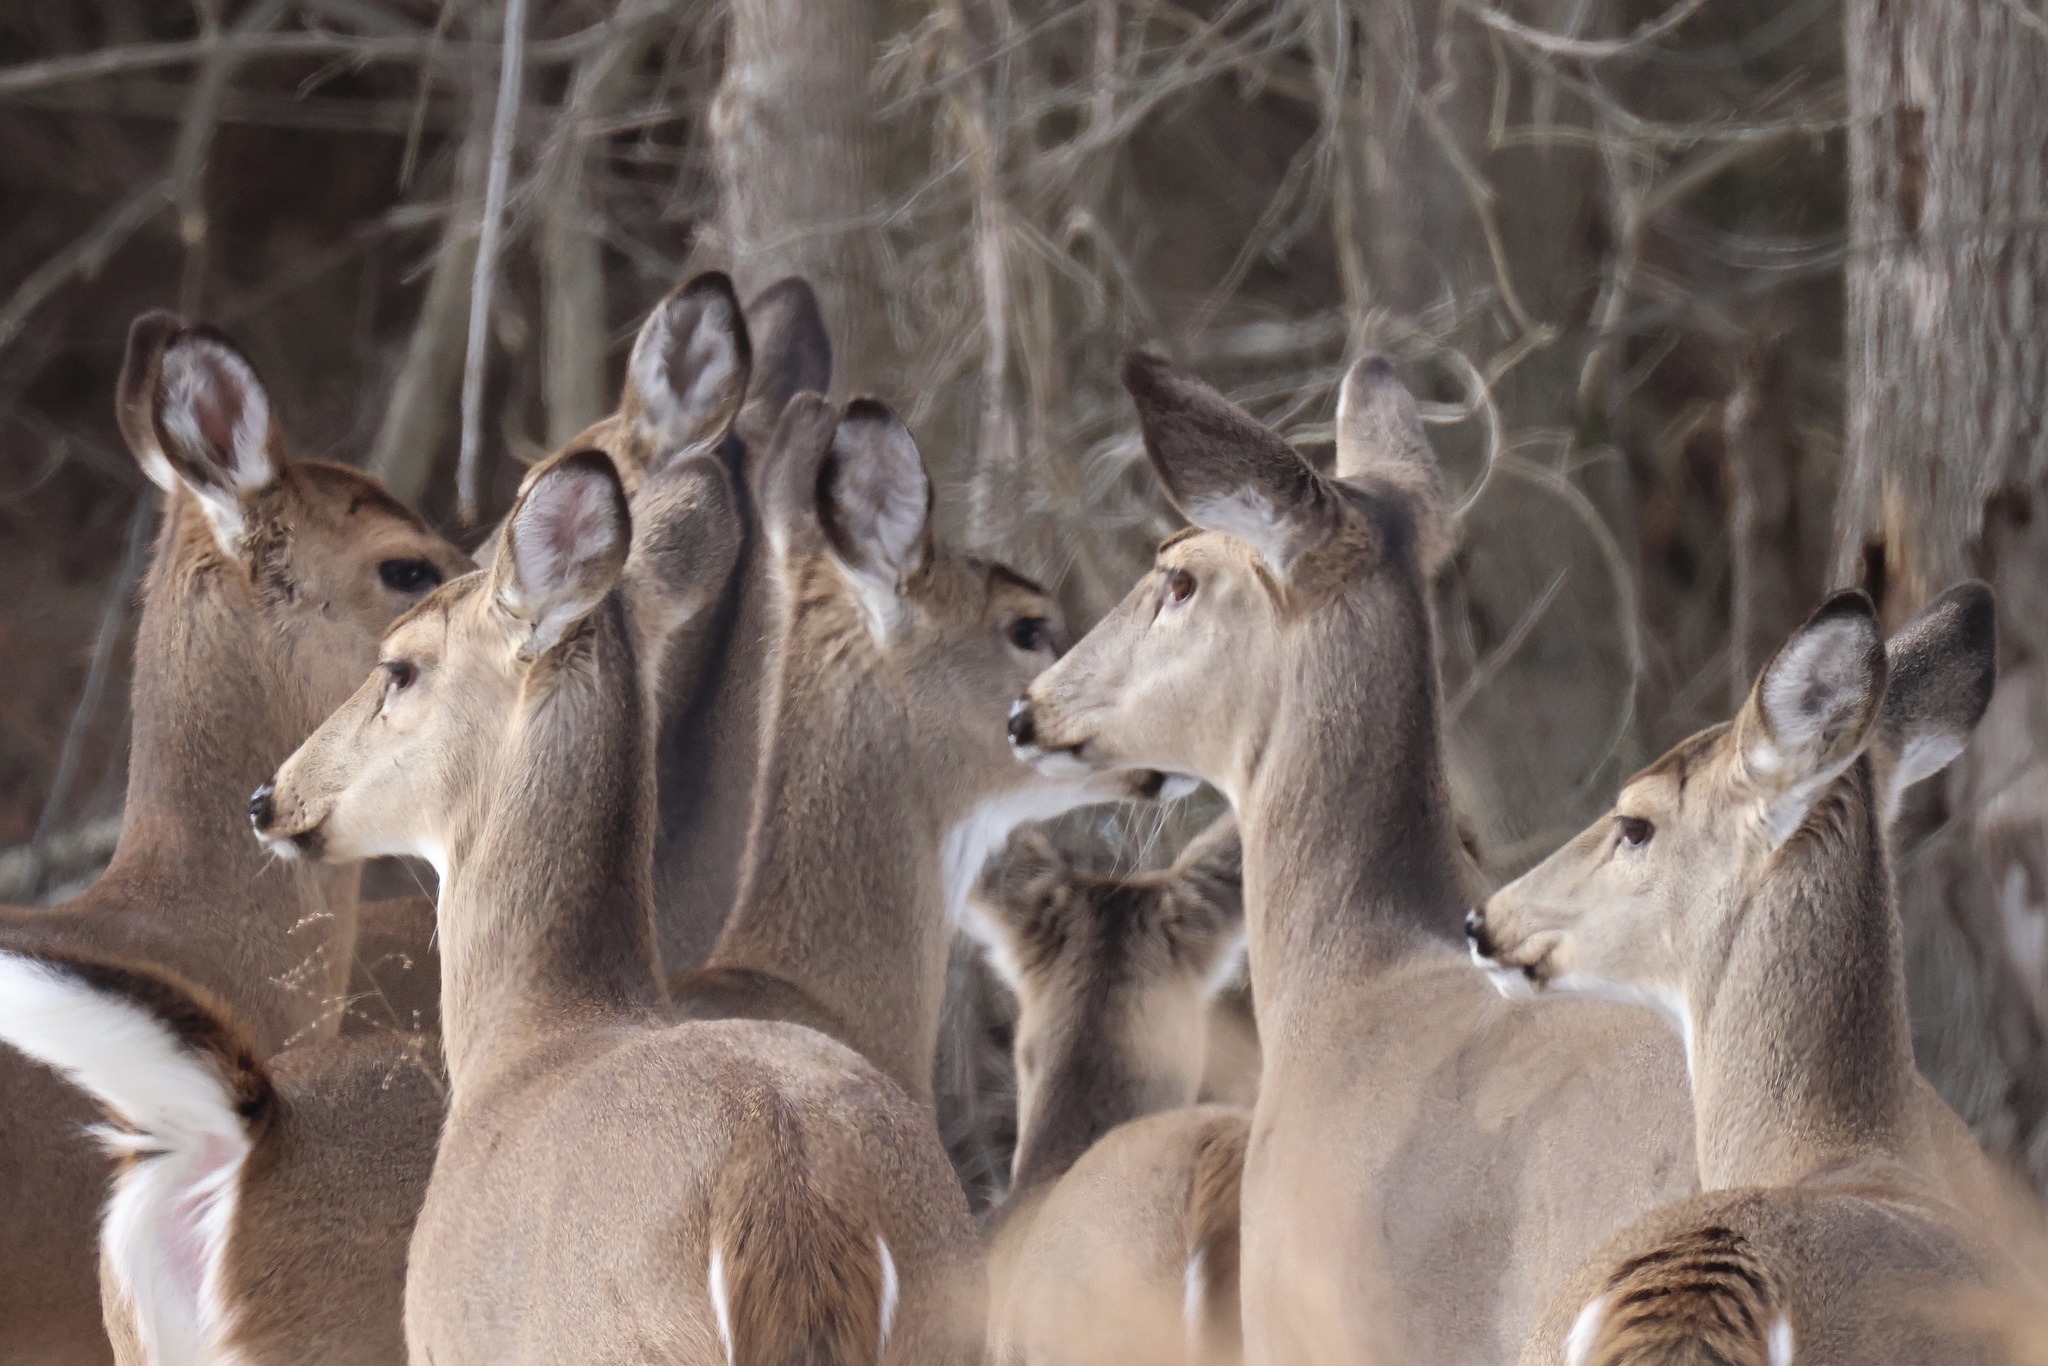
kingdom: Animalia
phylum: Chordata
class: Mammalia
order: Artiodactyla
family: Cervidae
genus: Odocoileus
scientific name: Odocoileus virginianus
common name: White-tailed deer
